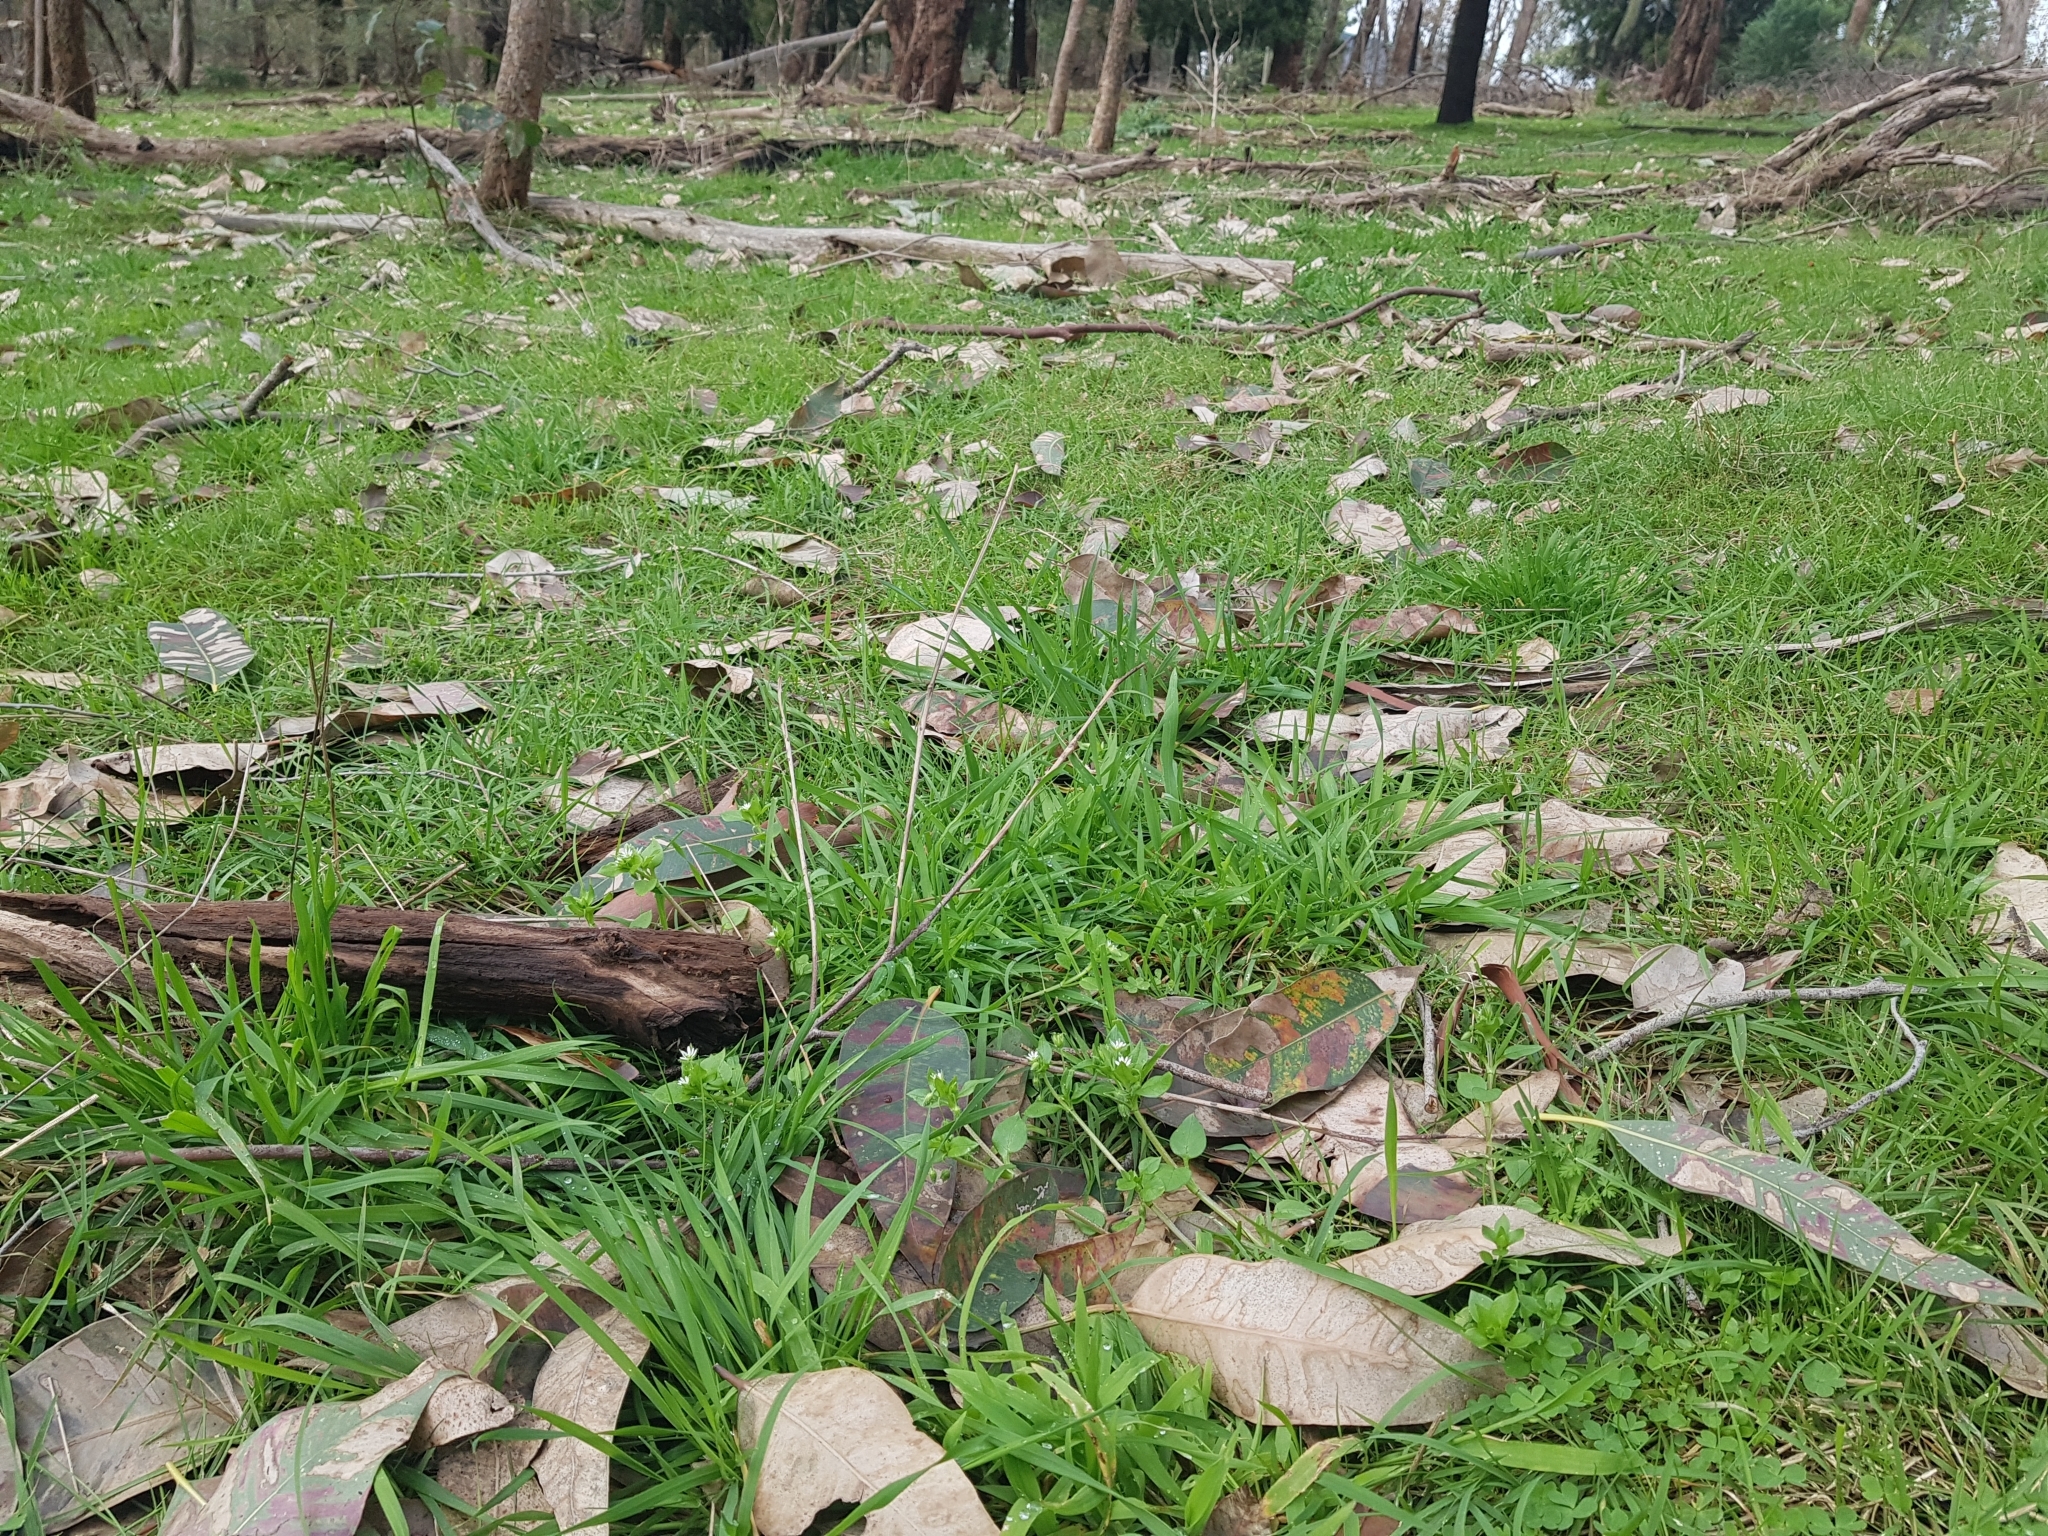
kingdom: Plantae
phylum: Tracheophyta
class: Magnoliopsida
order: Caryophyllales
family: Caryophyllaceae
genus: Stellaria
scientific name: Stellaria media
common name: Common chickweed
